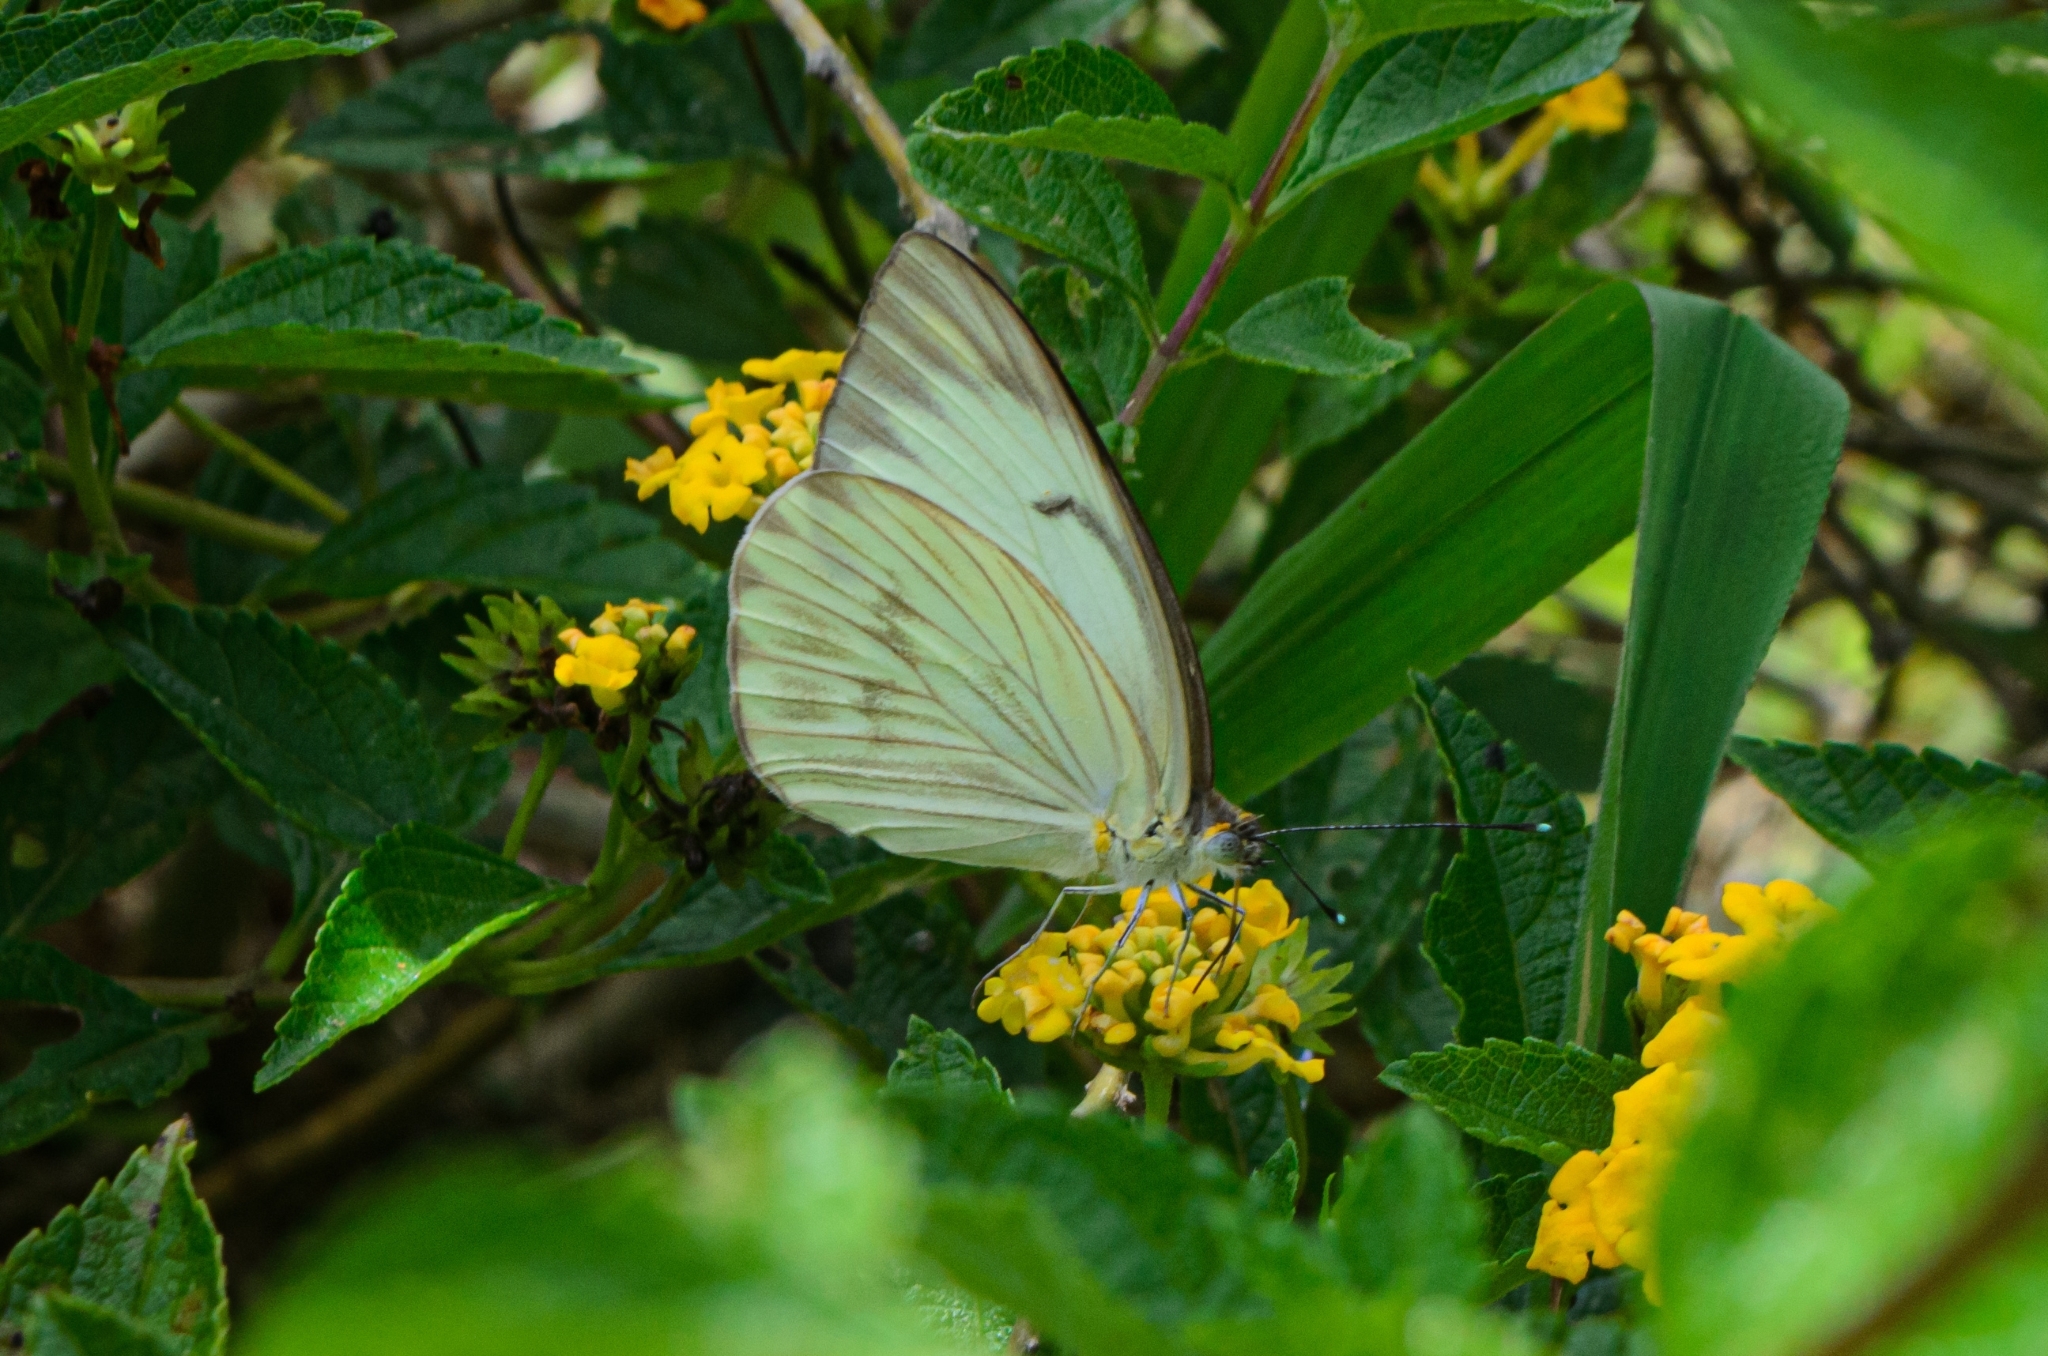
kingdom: Animalia
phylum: Arthropoda
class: Insecta
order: Lepidoptera
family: Pieridae
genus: Ascia
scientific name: Ascia monuste
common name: Great southern white
